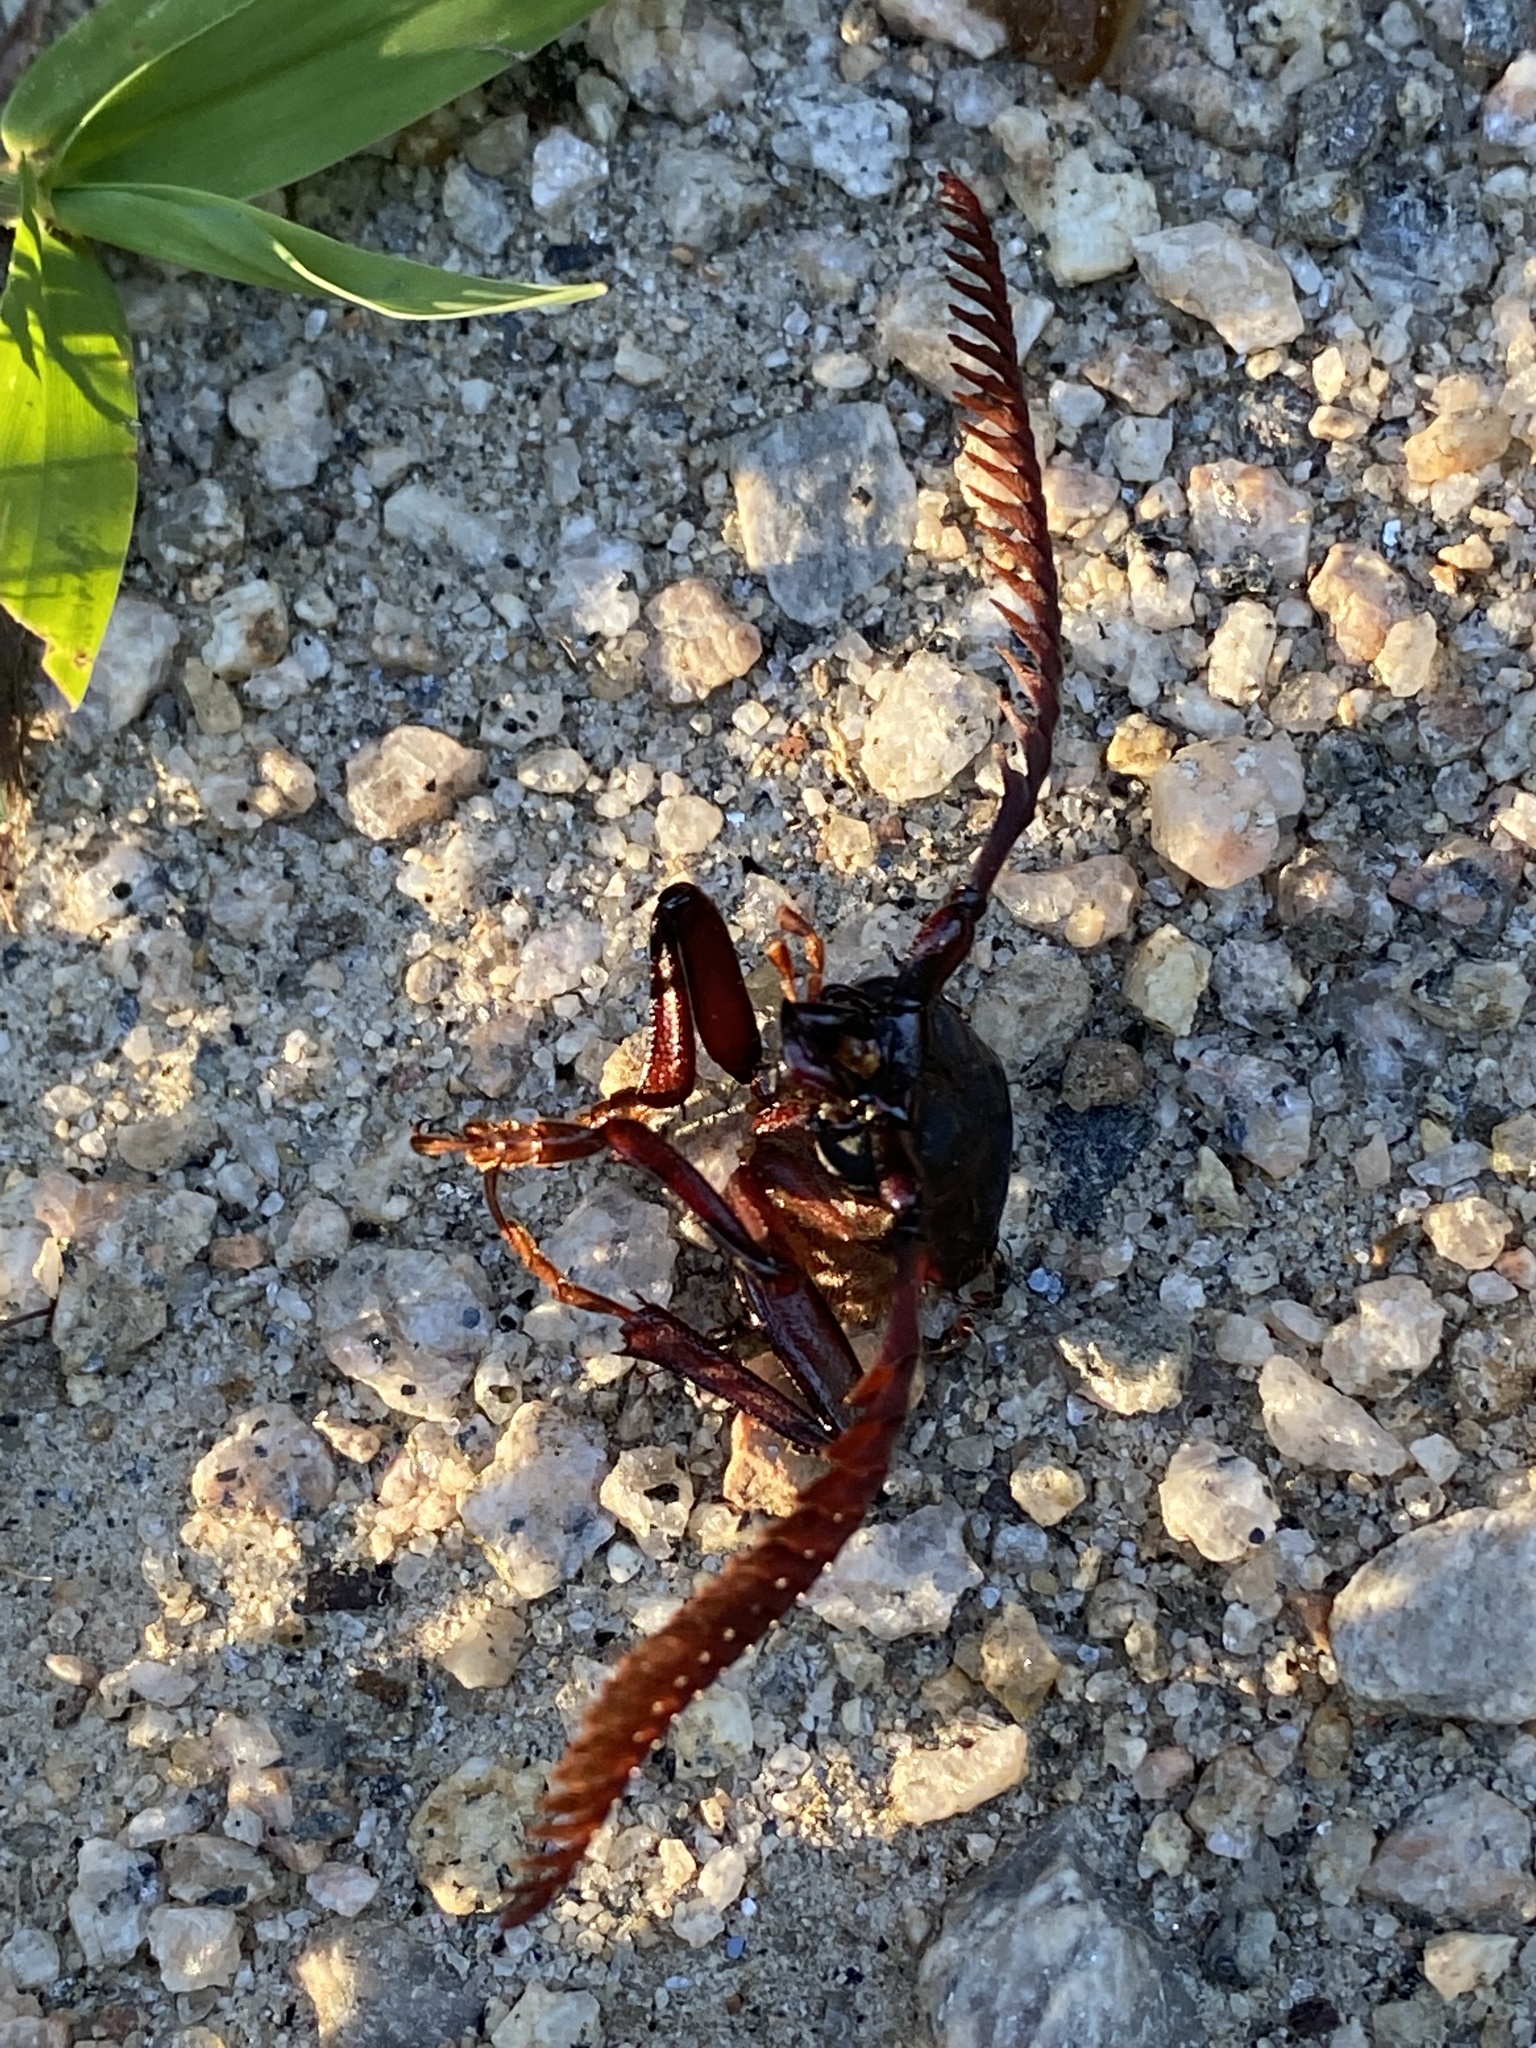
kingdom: Animalia
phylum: Arthropoda
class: Insecta
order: Coleoptera
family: Cerambycidae
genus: Prionus
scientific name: Prionus imbricornis
